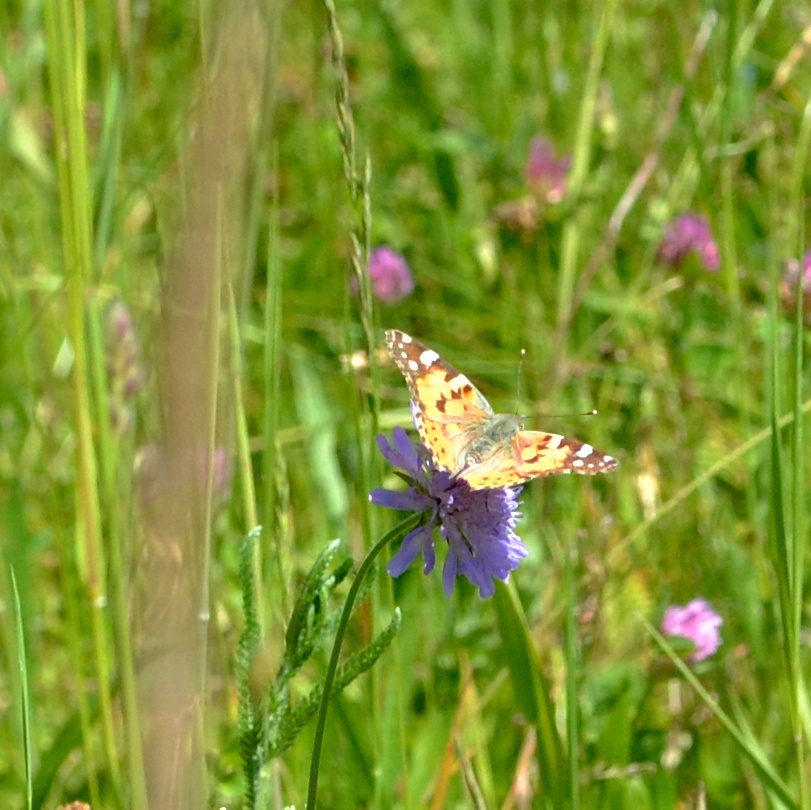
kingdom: Animalia
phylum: Arthropoda
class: Insecta
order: Lepidoptera
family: Nymphalidae
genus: Vanessa
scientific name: Vanessa cardui
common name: Painted lady
